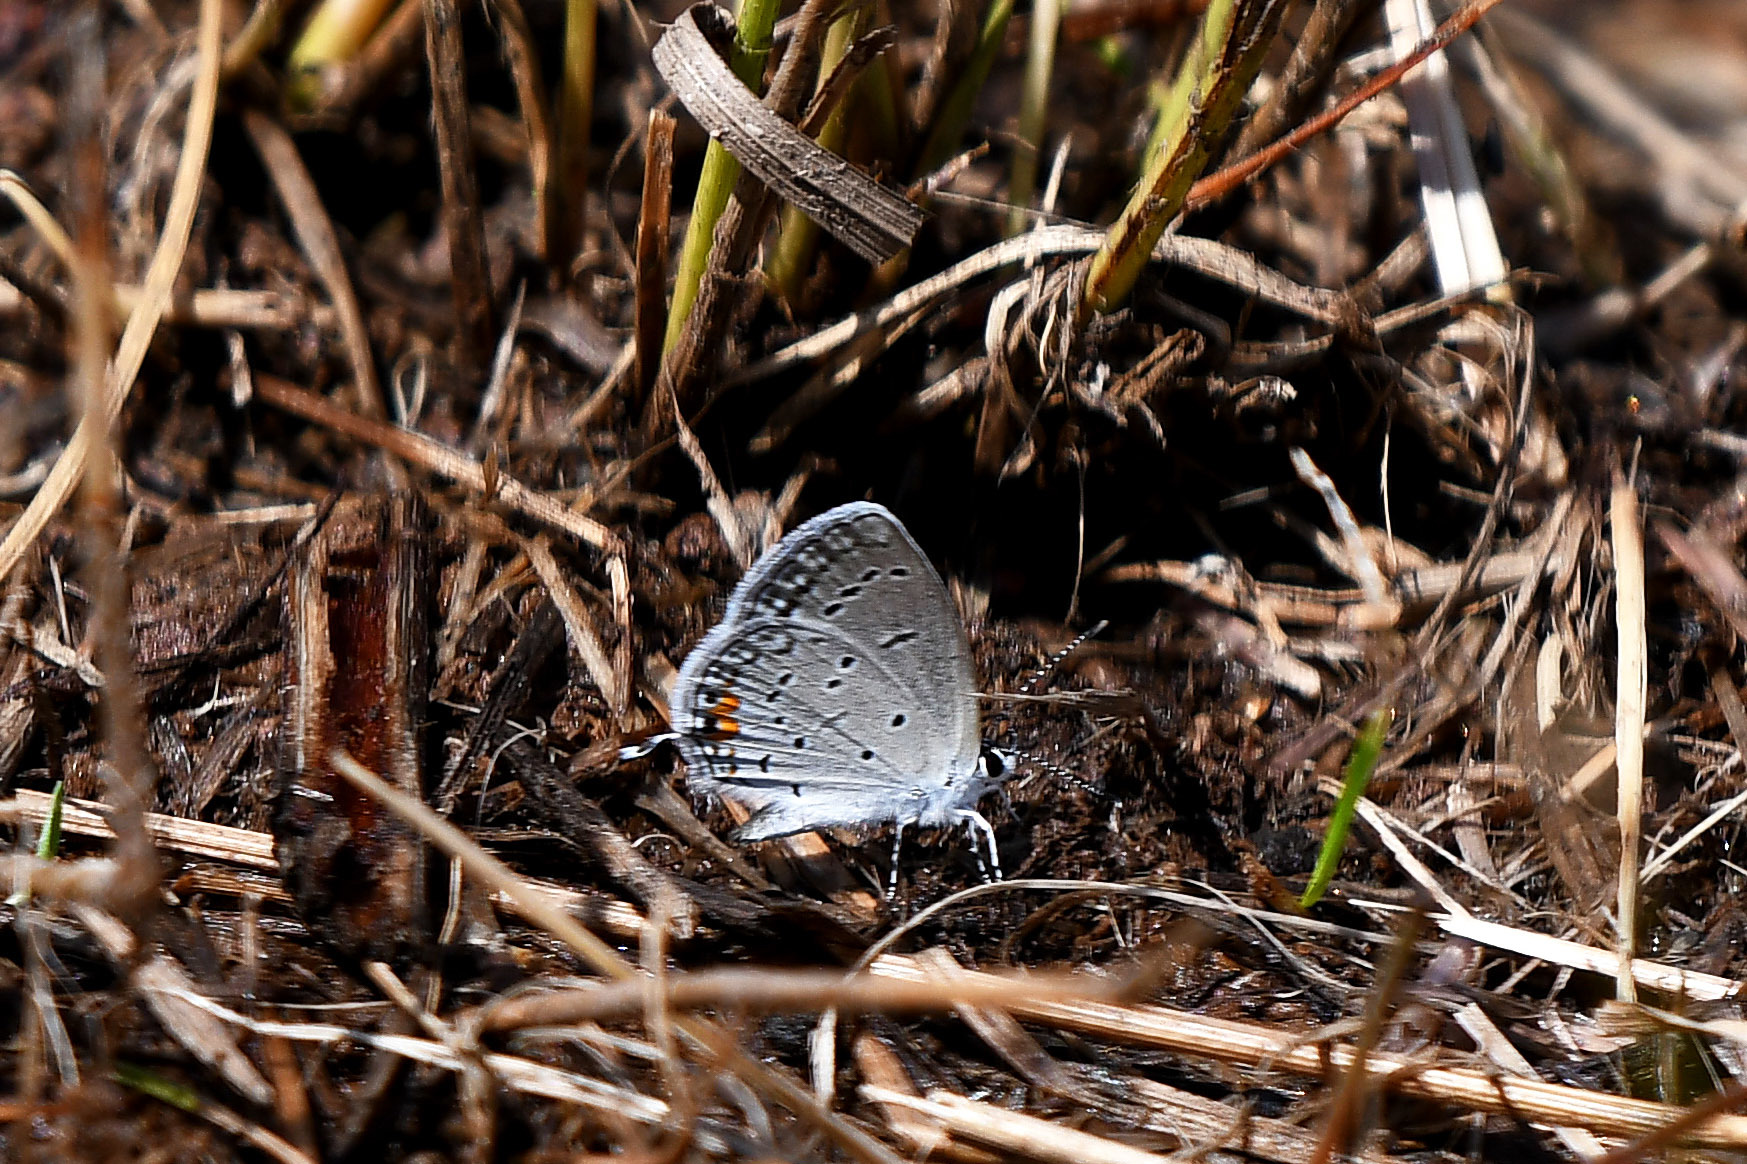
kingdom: Animalia
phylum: Arthropoda
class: Insecta
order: Lepidoptera
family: Lycaenidae
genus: Elkalyce
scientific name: Elkalyce comyntas
